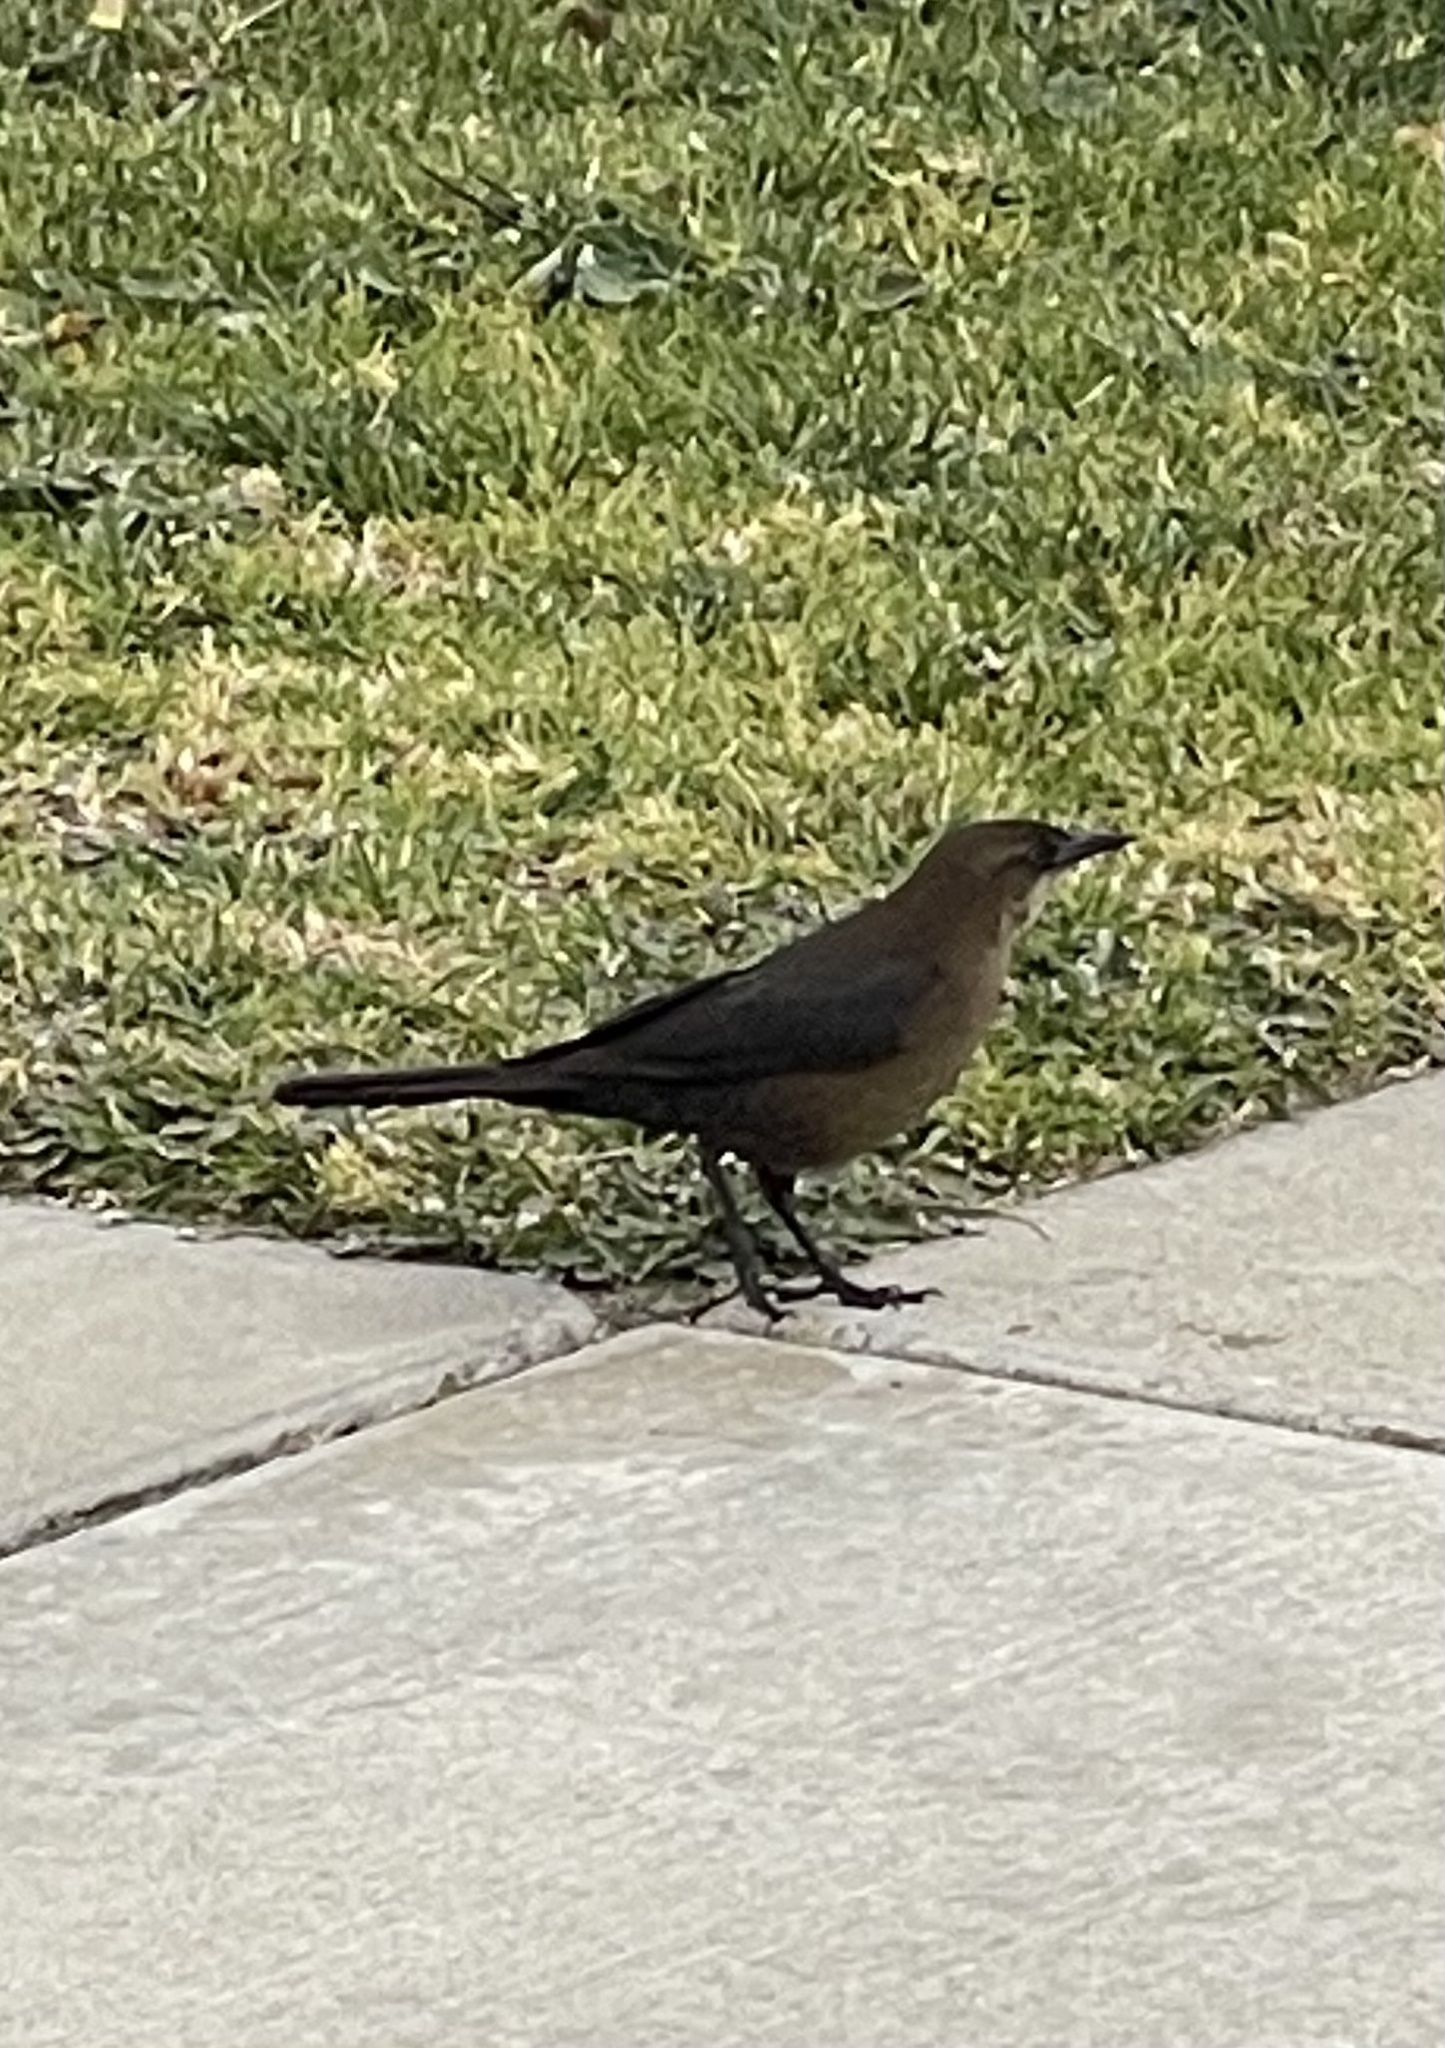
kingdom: Animalia
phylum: Chordata
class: Aves
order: Passeriformes
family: Icteridae
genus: Quiscalus
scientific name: Quiscalus mexicanus
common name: Great-tailed grackle
